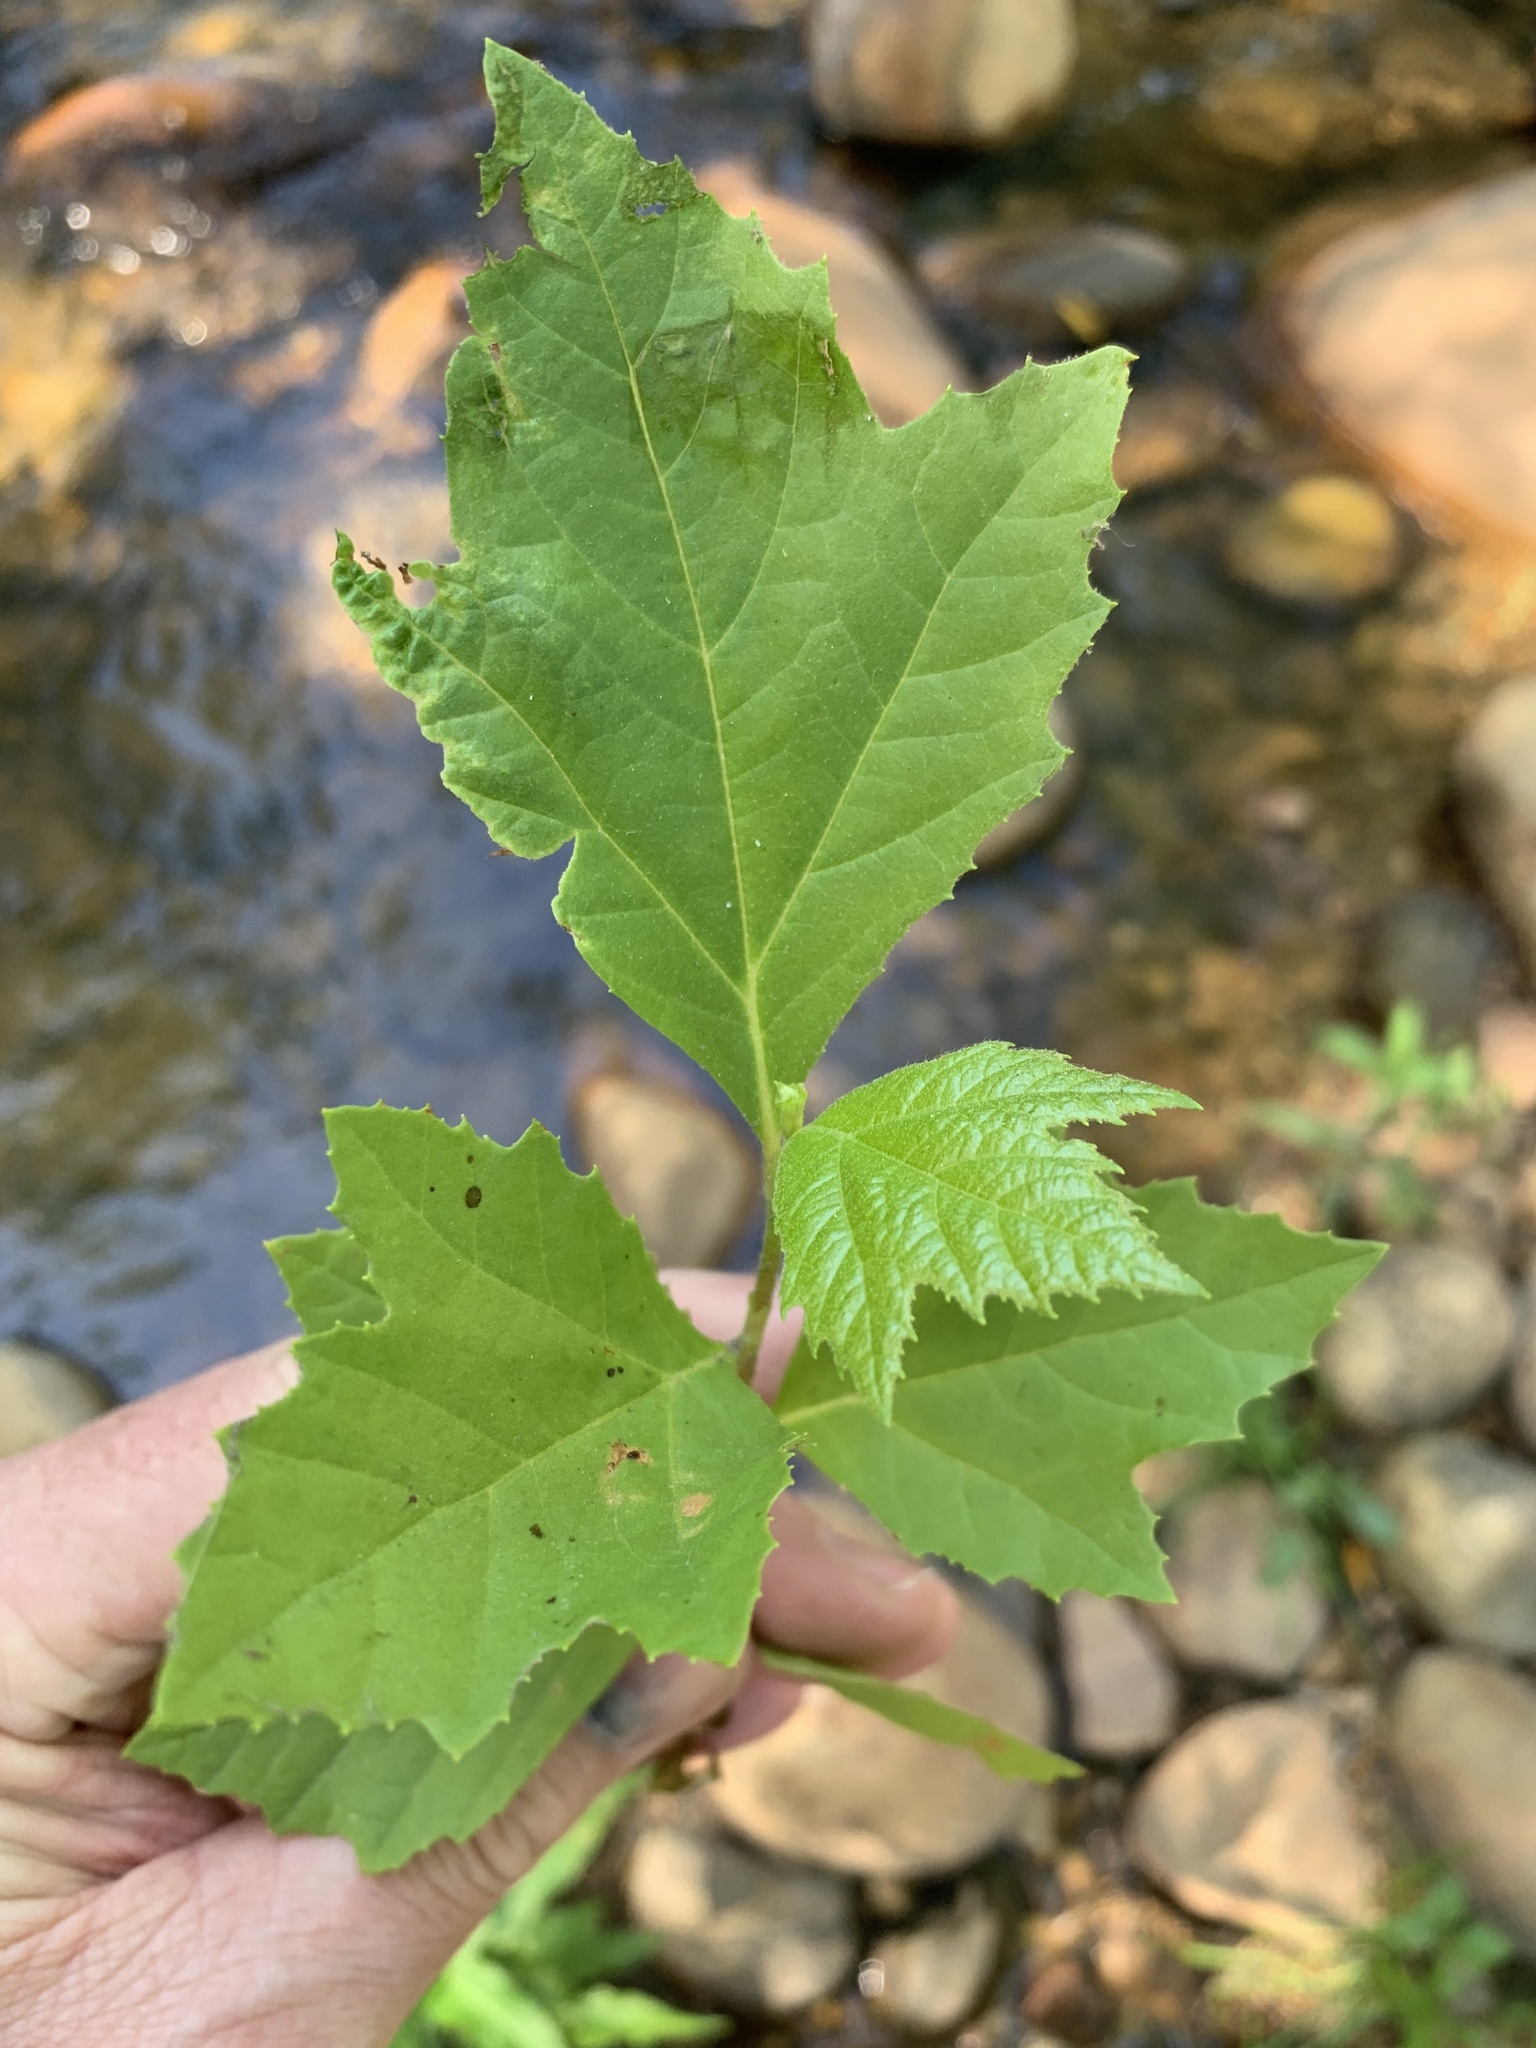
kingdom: Plantae
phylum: Tracheophyta
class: Magnoliopsida
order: Proteales
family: Platanaceae
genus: Platanus
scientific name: Platanus hispanica
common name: London plane
